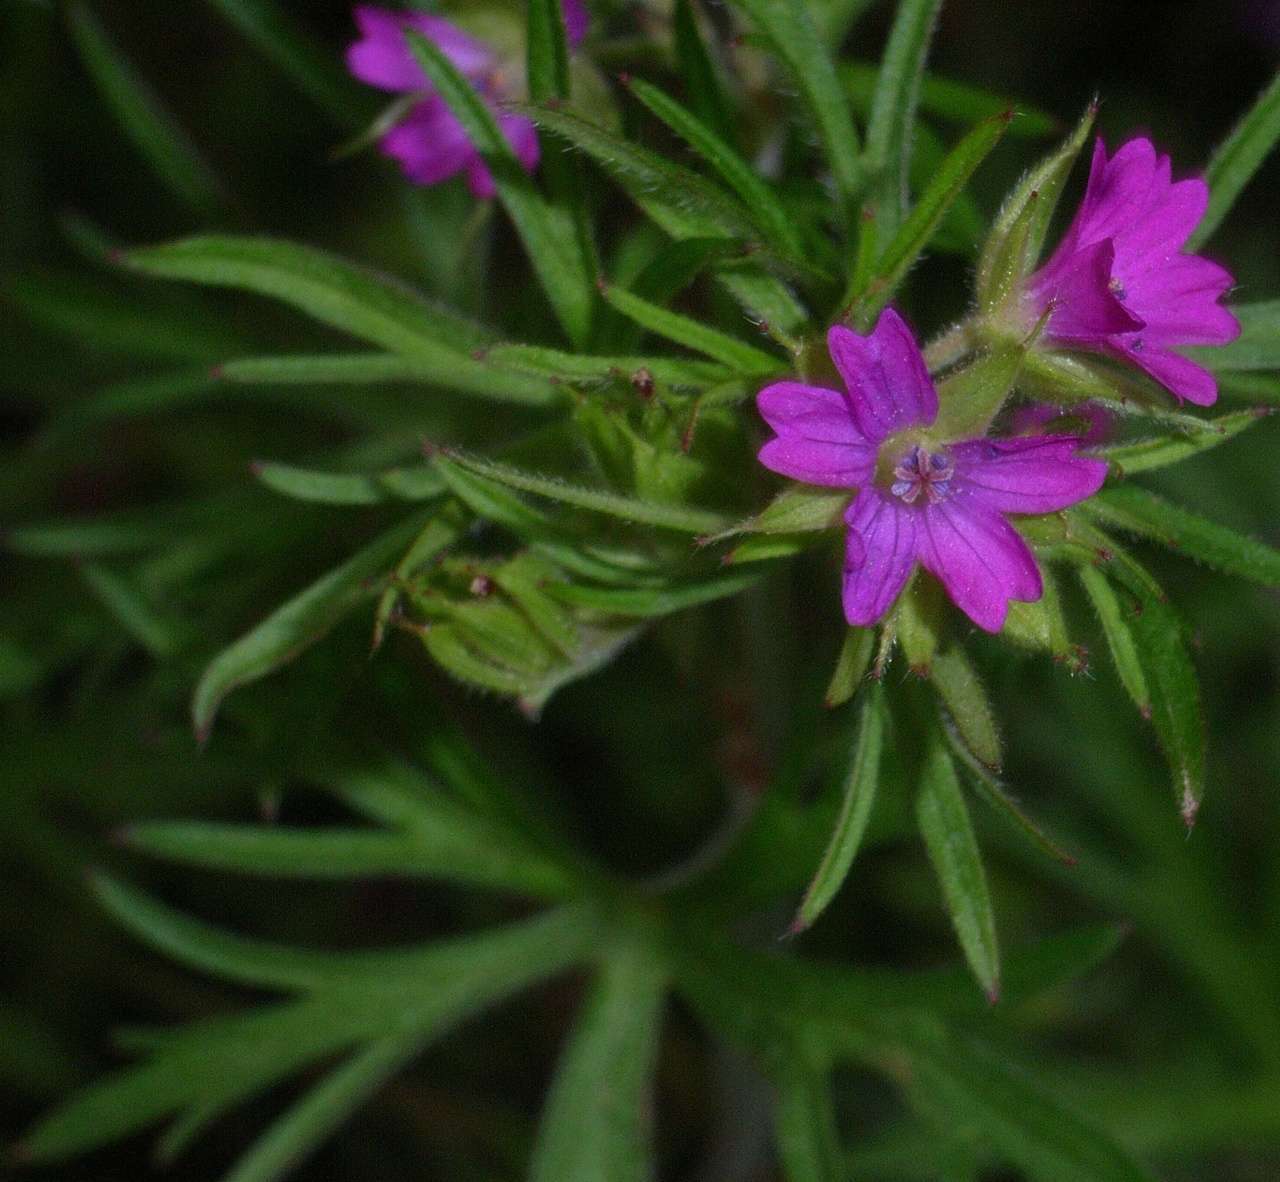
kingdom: Plantae
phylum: Tracheophyta
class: Magnoliopsida
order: Geraniales
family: Geraniaceae
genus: Geranium
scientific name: Geranium dissectum
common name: Cut-leaved crane's-bill
